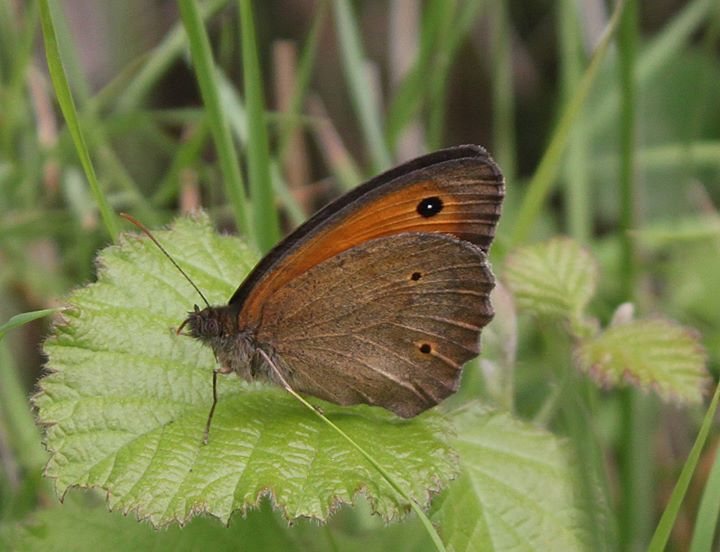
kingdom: Animalia
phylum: Arthropoda
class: Insecta
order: Lepidoptera
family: Nymphalidae
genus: Maniola
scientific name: Maniola jurtina
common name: Meadow brown
